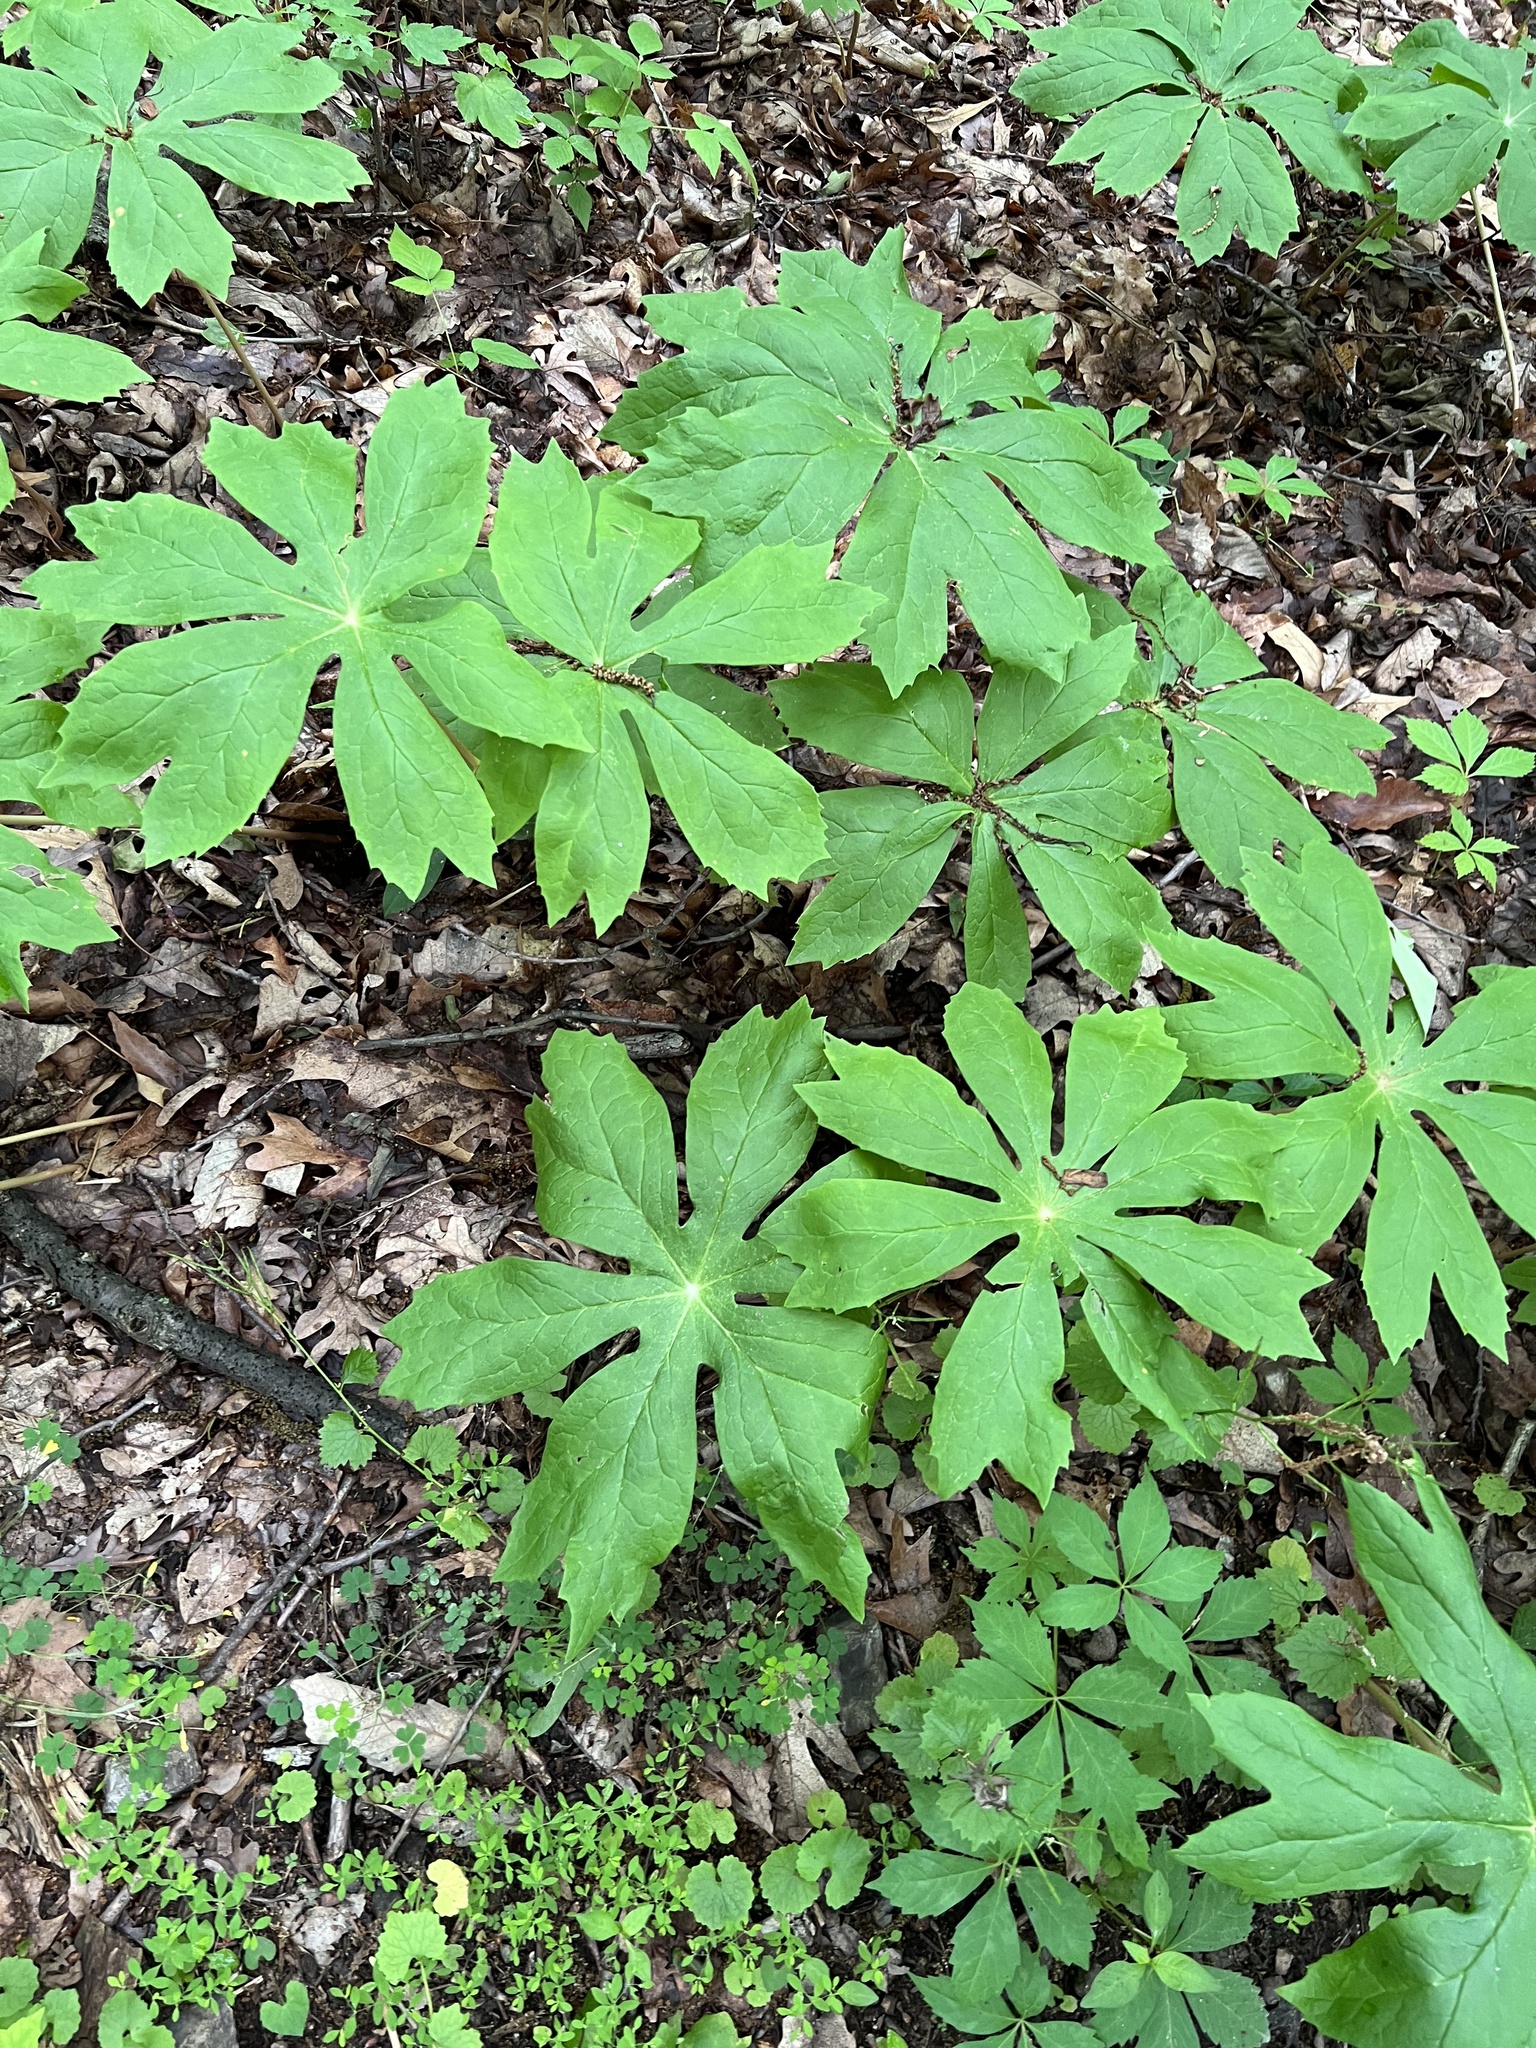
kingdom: Plantae
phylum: Tracheophyta
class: Magnoliopsida
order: Ranunculales
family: Berberidaceae
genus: Podophyllum
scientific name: Podophyllum peltatum
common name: Wild mandrake
